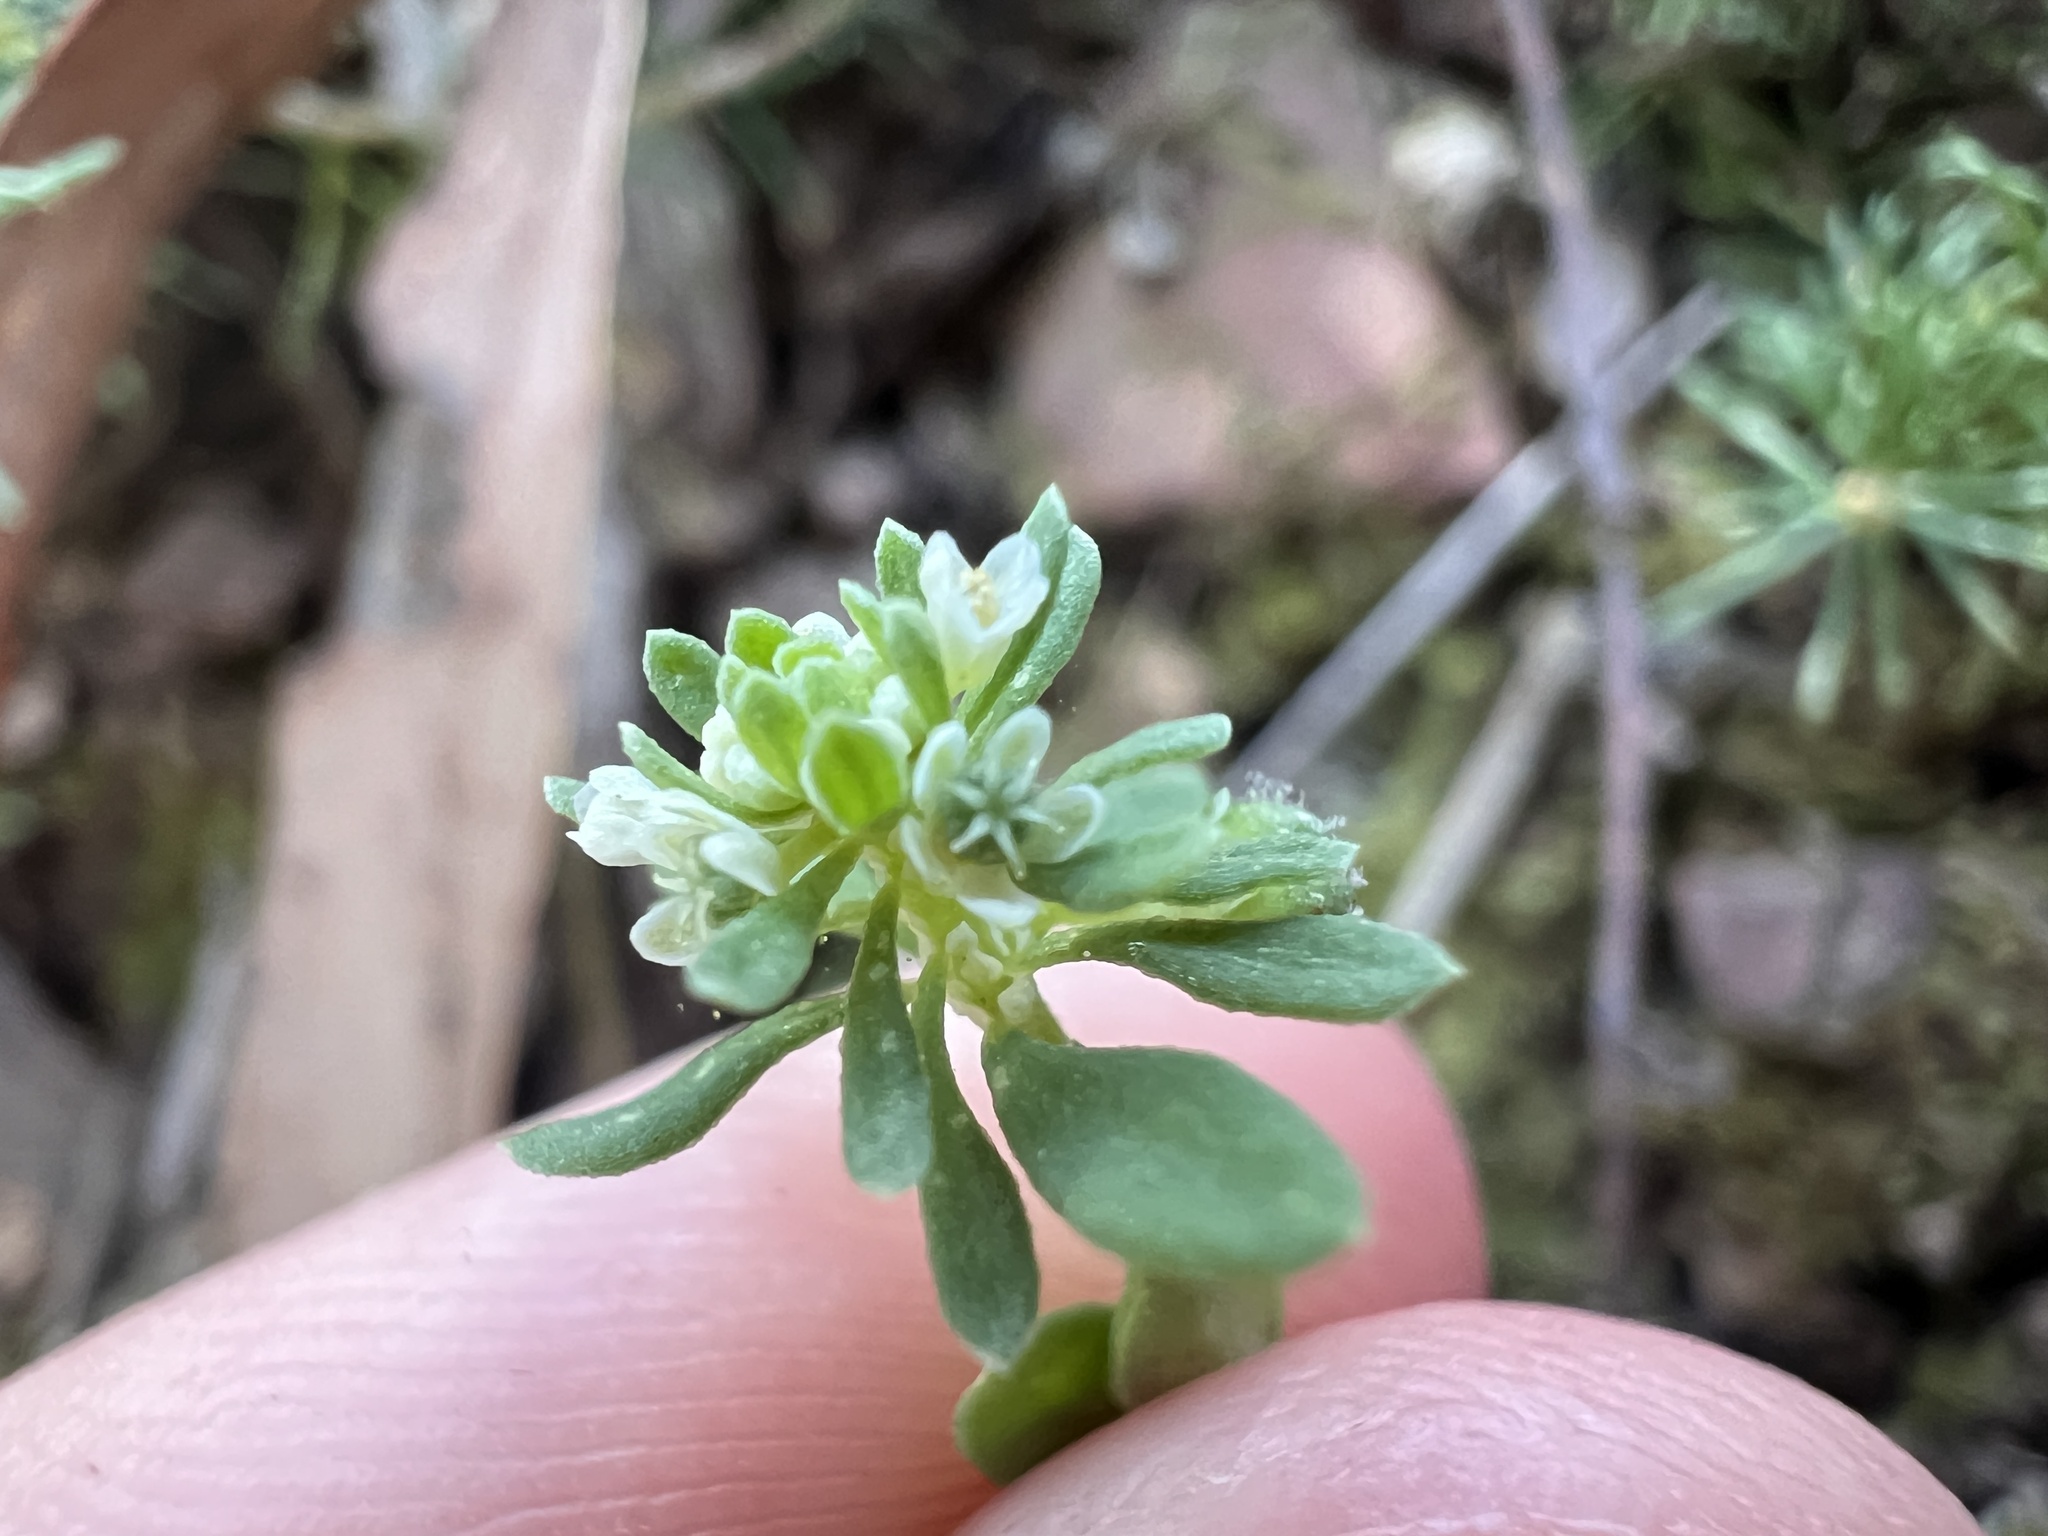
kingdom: Plantae
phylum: Tracheophyta
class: Magnoliopsida
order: Malpighiales
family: Phyllanthaceae
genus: Poranthera
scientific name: Poranthera microphylla
